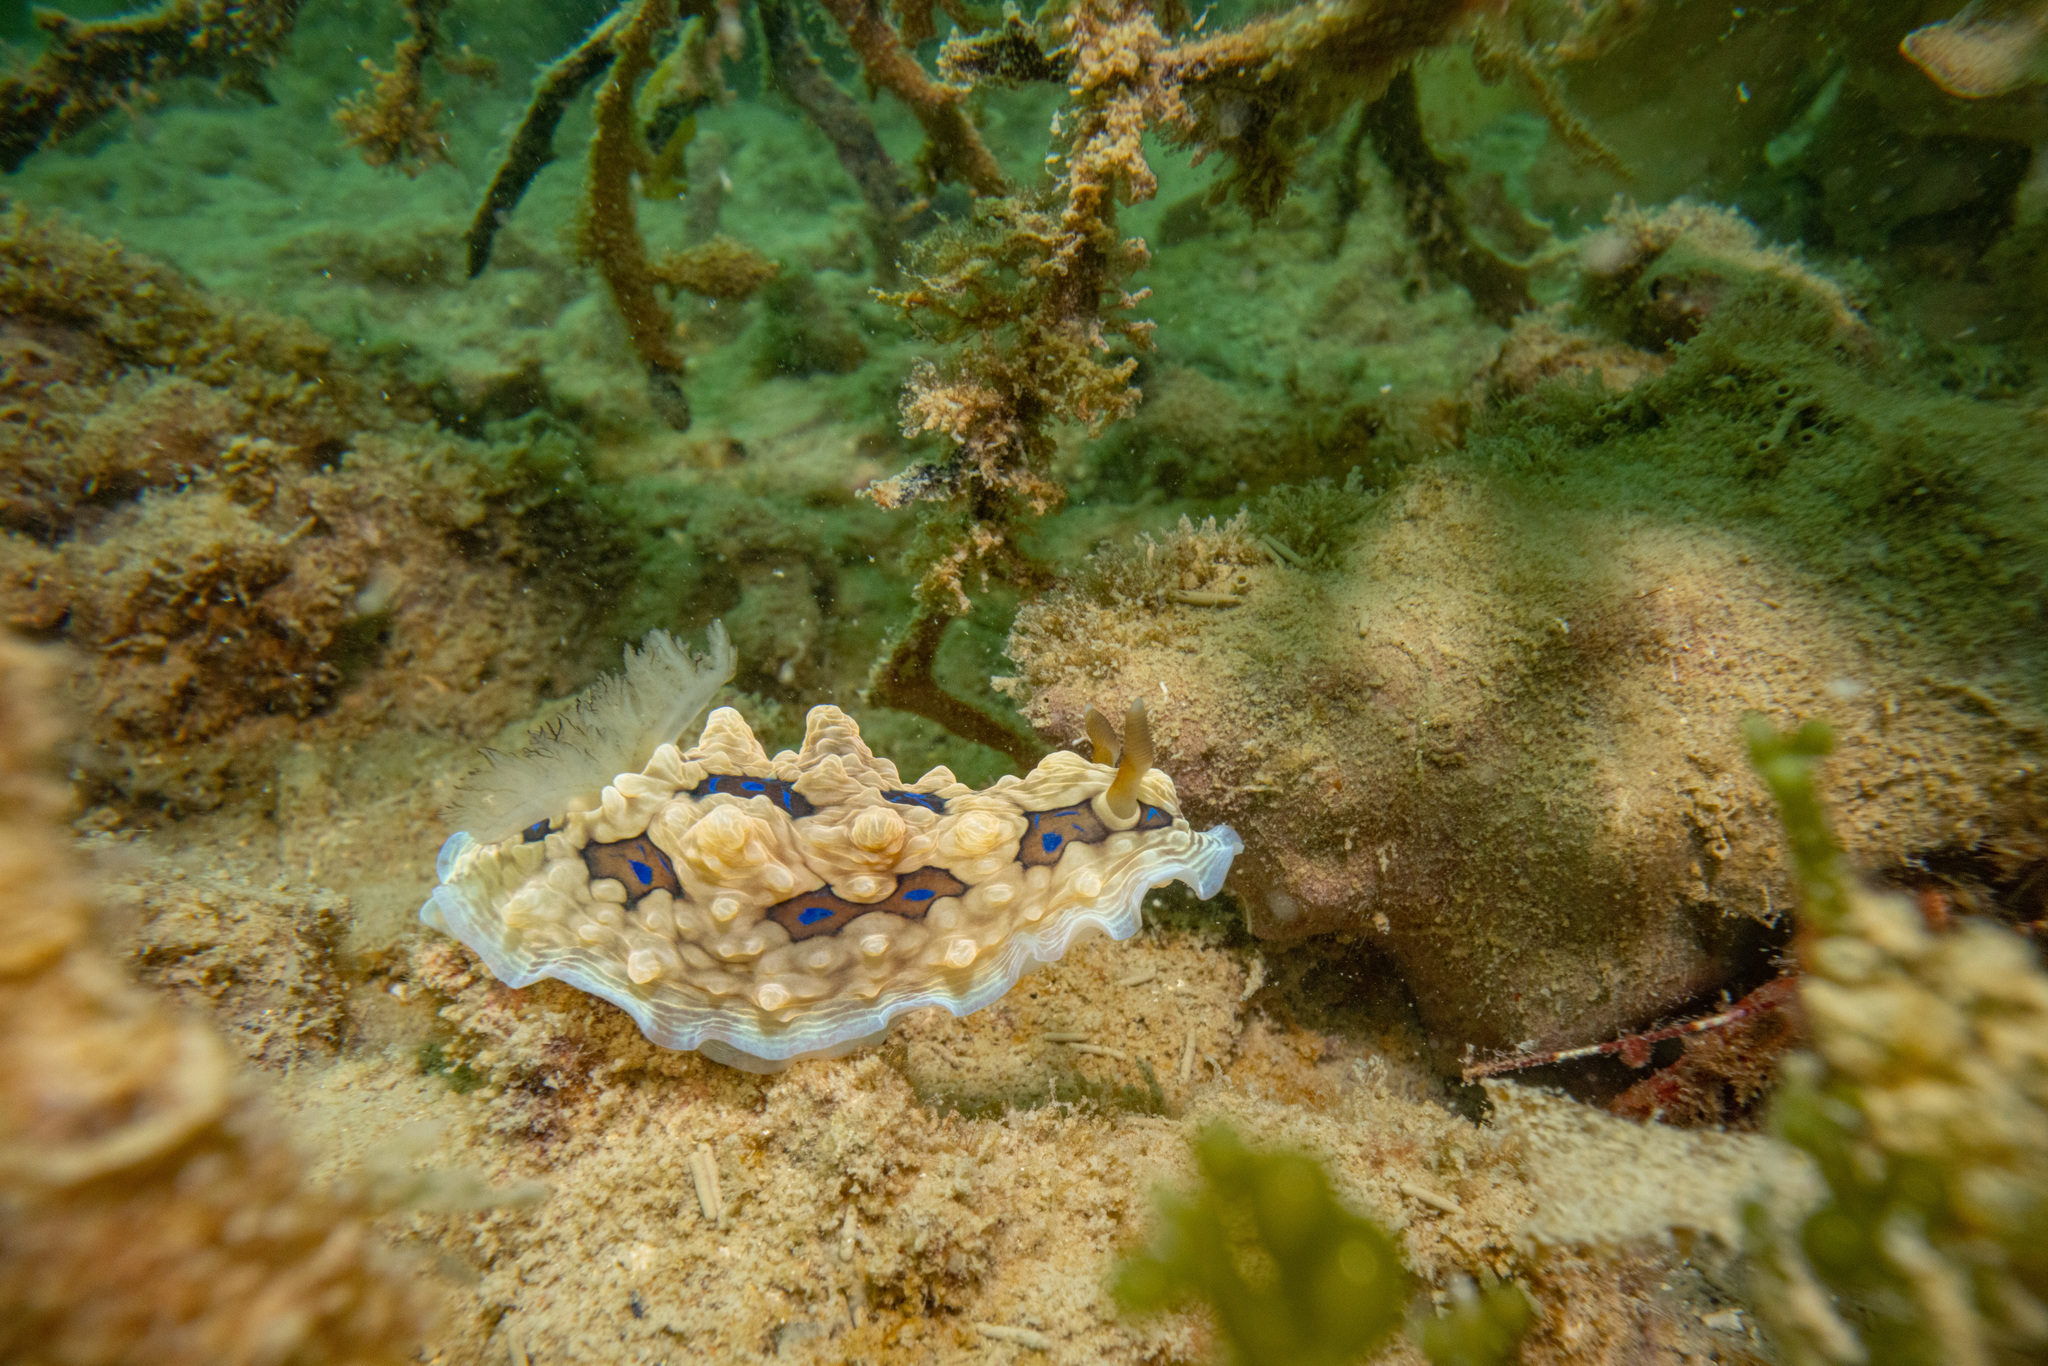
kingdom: Animalia
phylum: Mollusca
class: Gastropoda
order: Nudibranchia
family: Dendrodorididae
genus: Dendrodoris
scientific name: Dendrodoris krusensternii
